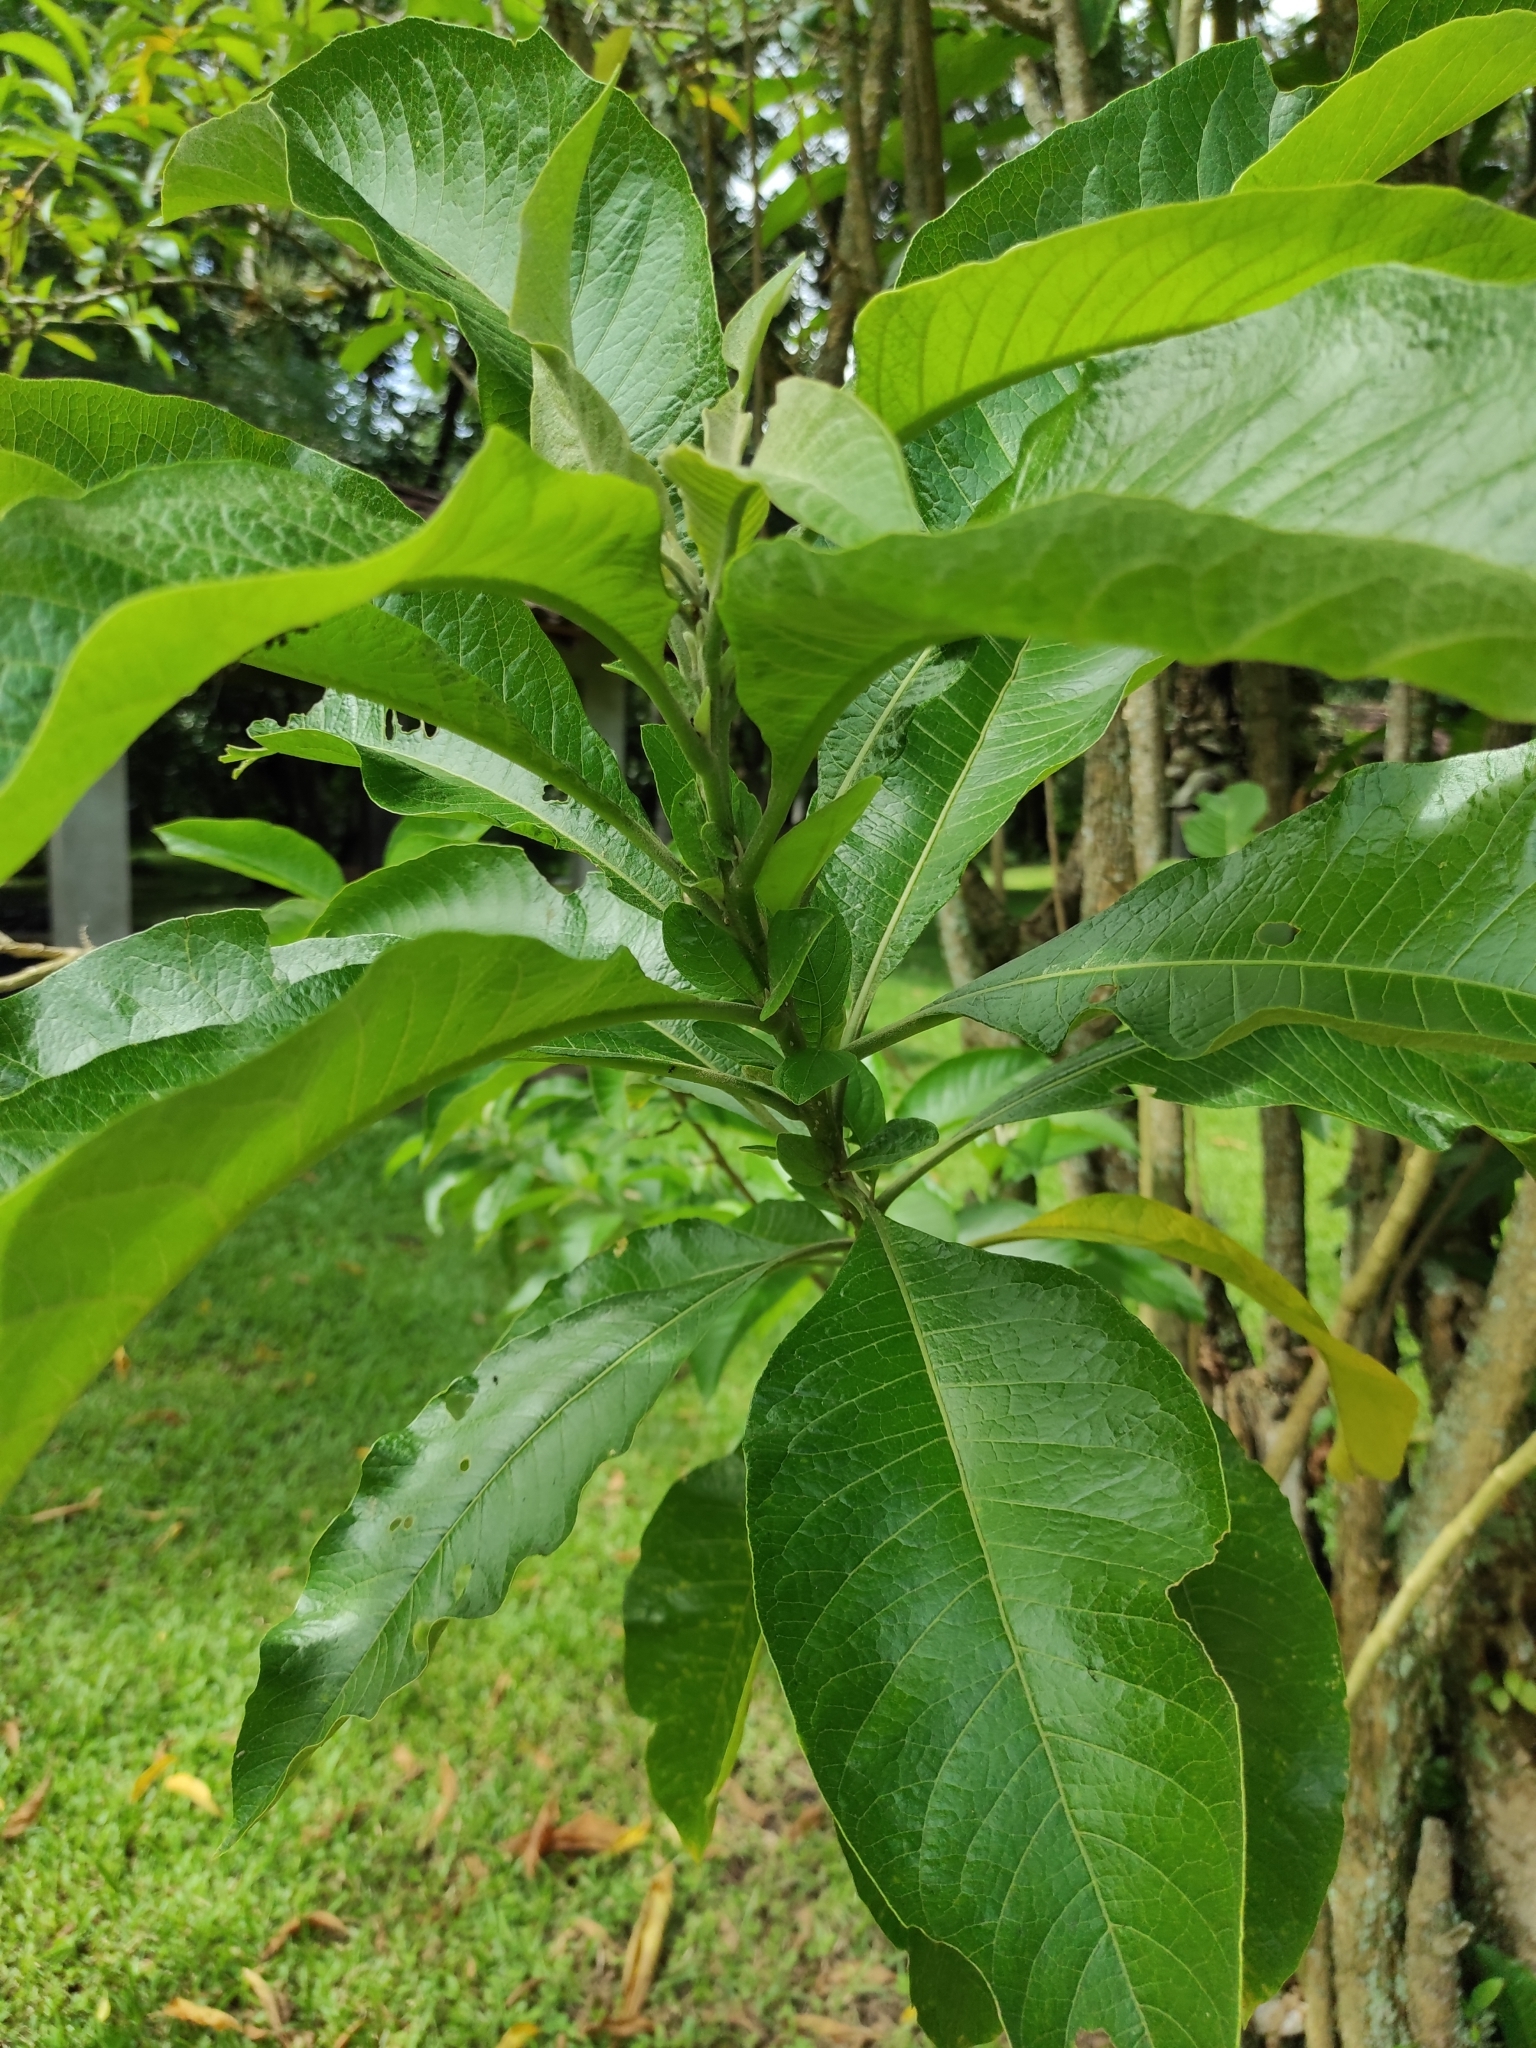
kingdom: Plantae
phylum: Tracheophyta
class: Magnoliopsida
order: Solanales
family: Solanaceae
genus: Iochroma
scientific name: Iochroma arborescens
